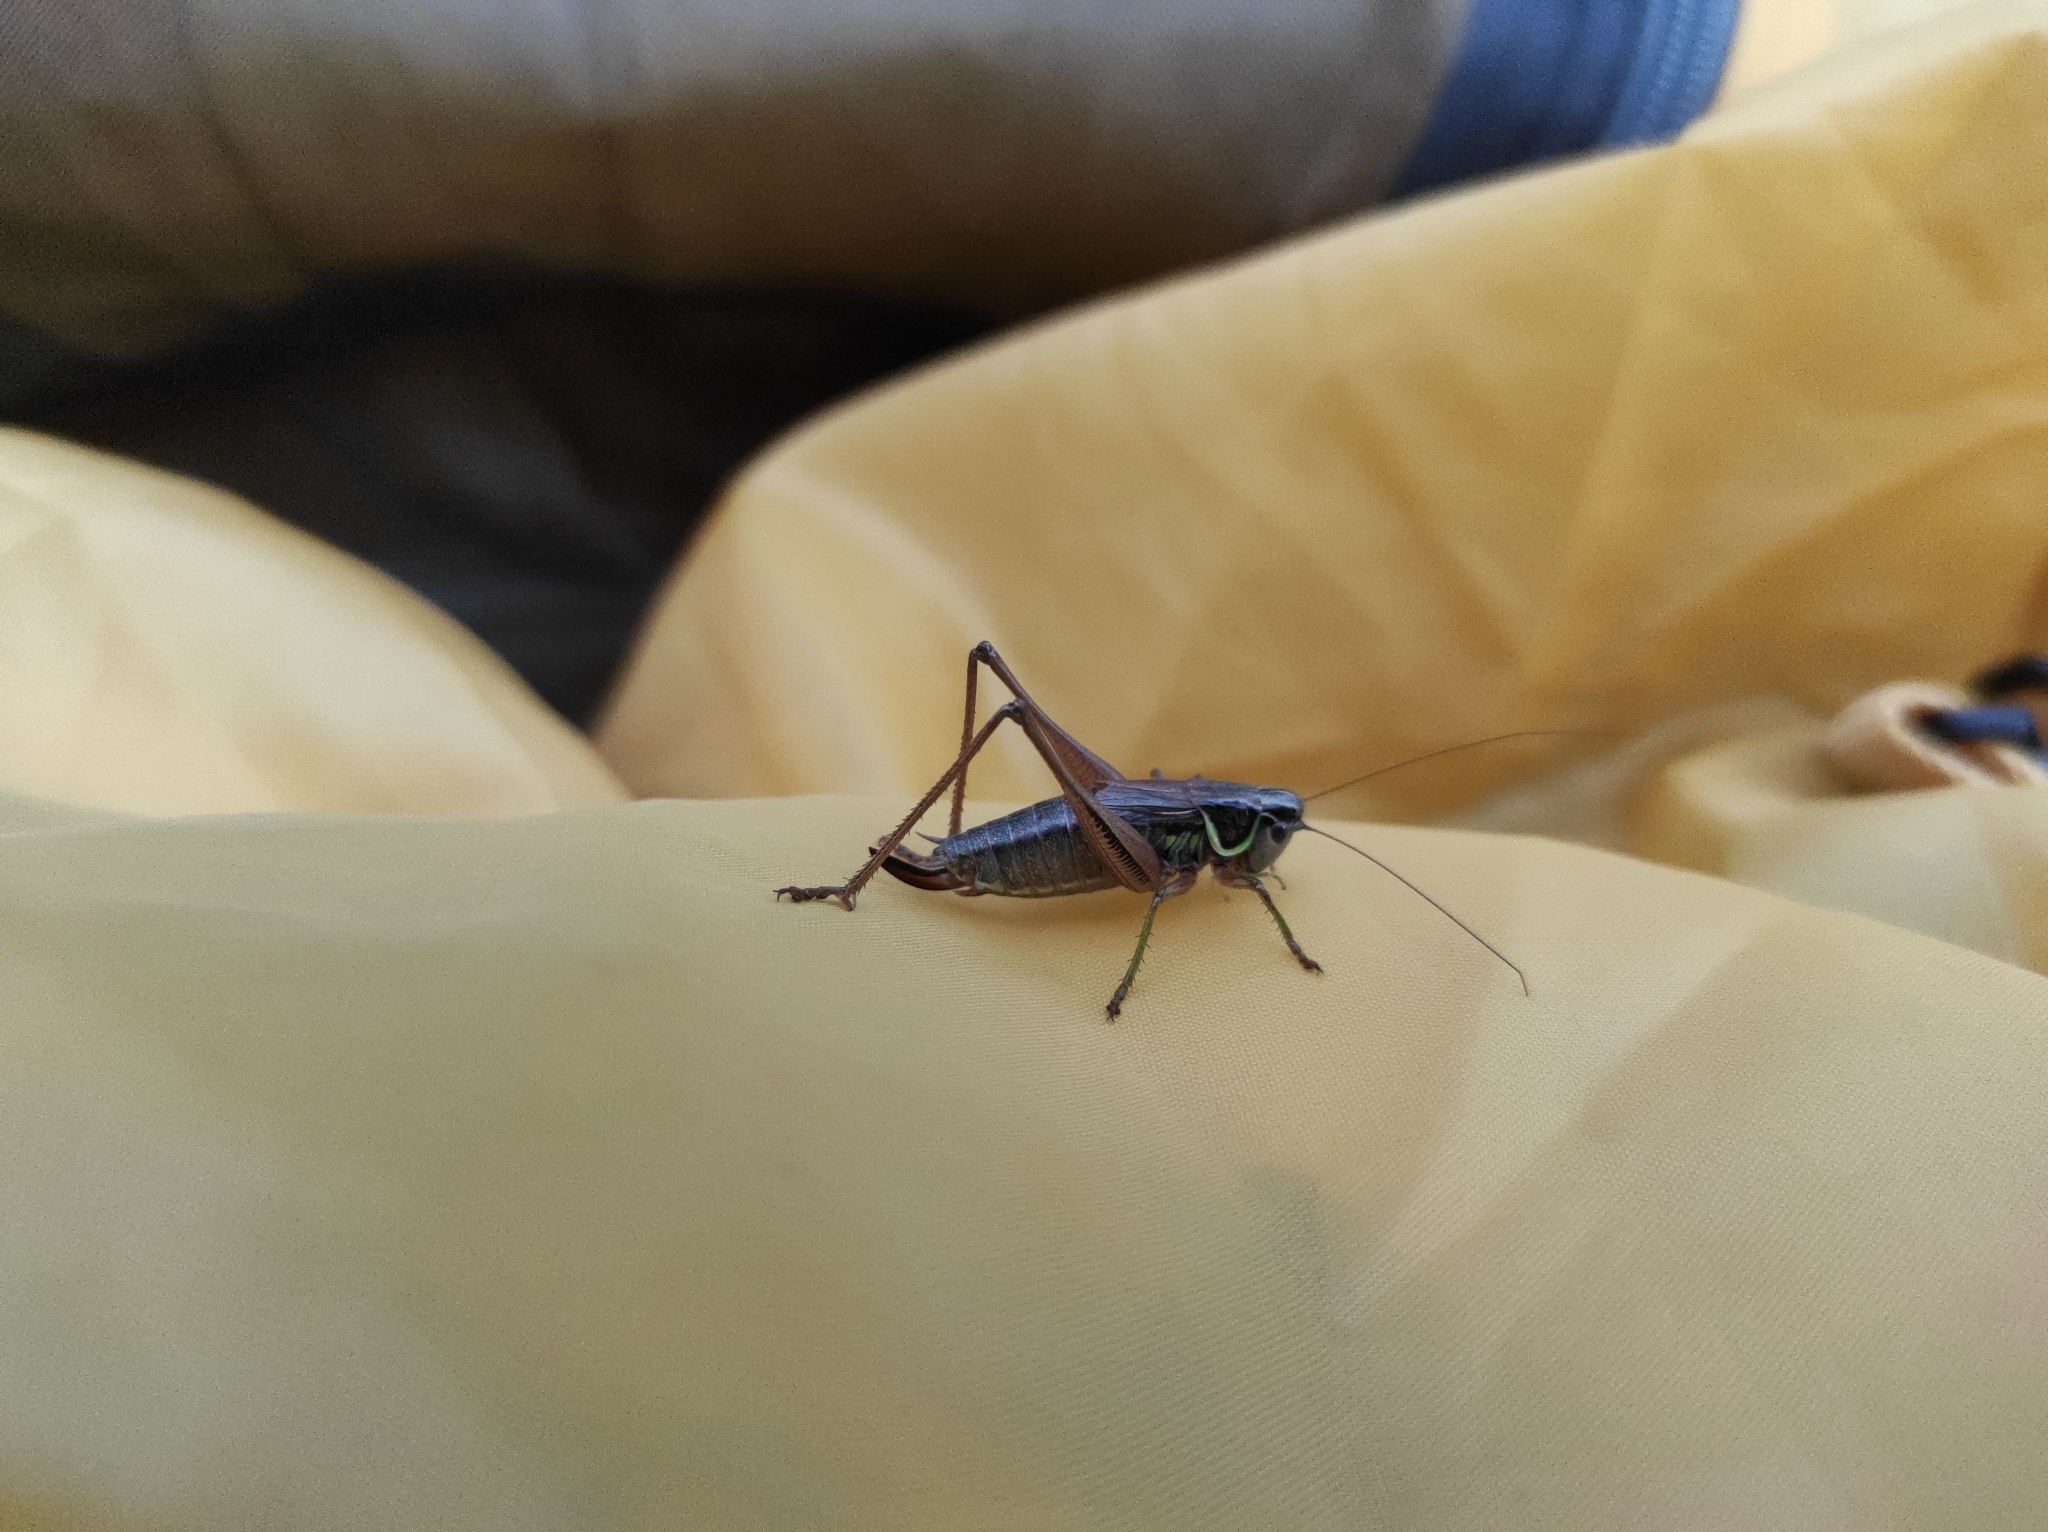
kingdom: Animalia
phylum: Arthropoda
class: Insecta
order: Orthoptera
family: Tettigoniidae
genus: Roeseliana
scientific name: Roeseliana roeselii
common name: Roesel's bush cricket
